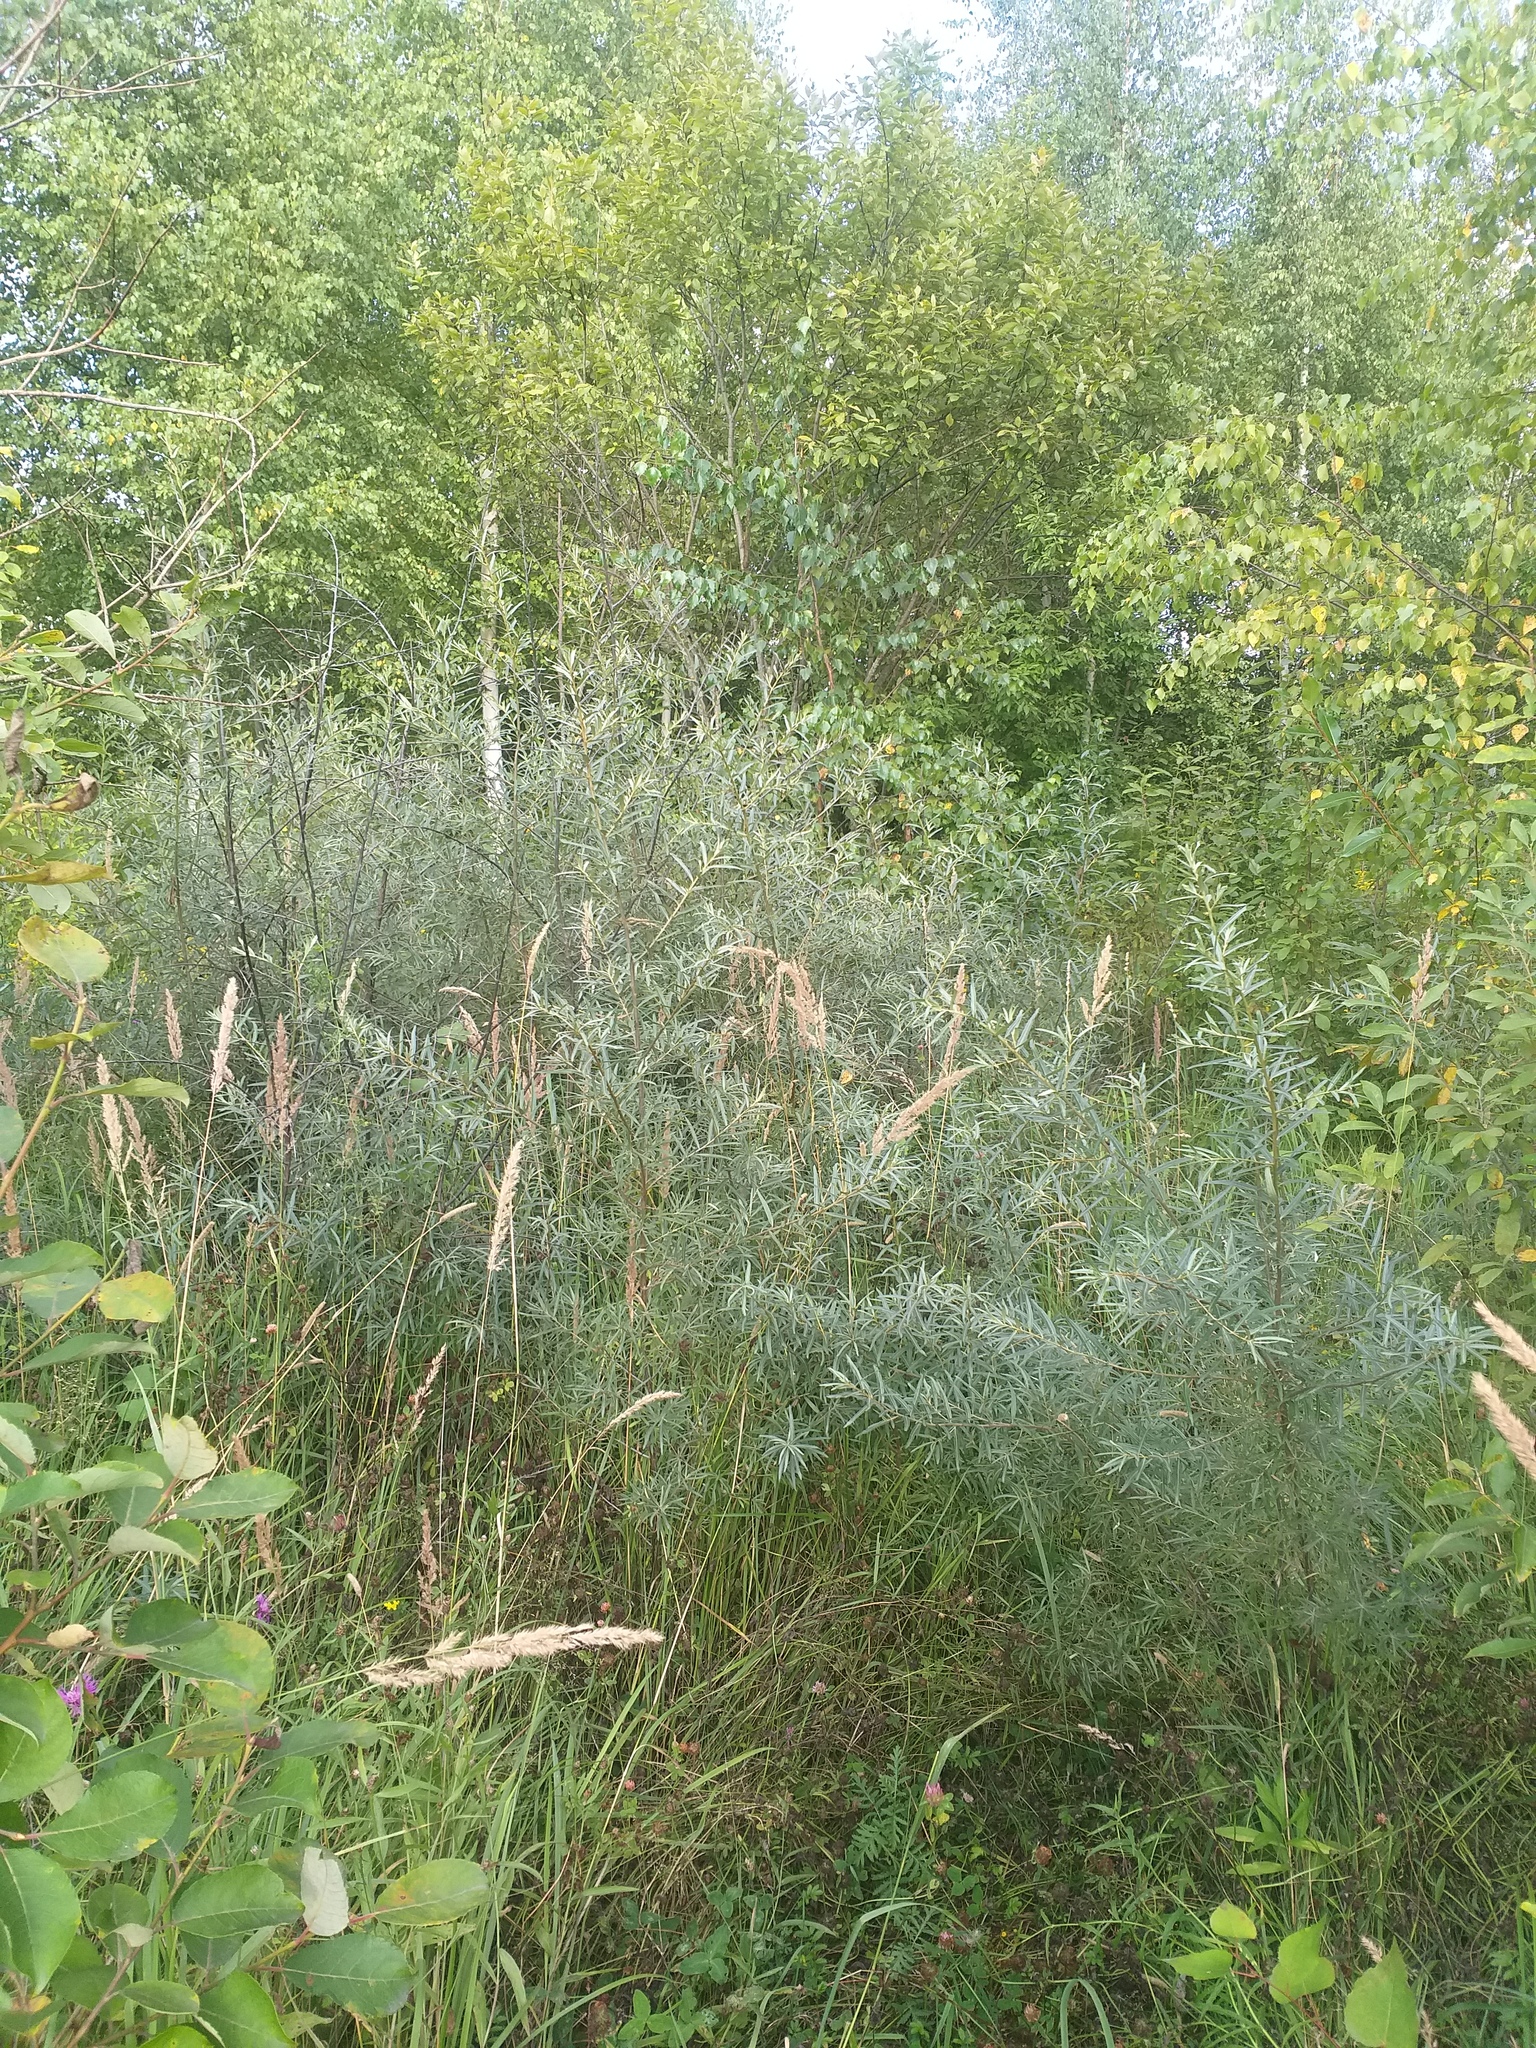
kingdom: Plantae
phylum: Tracheophyta
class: Magnoliopsida
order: Rosales
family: Elaeagnaceae
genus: Hippophae
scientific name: Hippophae rhamnoides
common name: Sea-buckthorn
